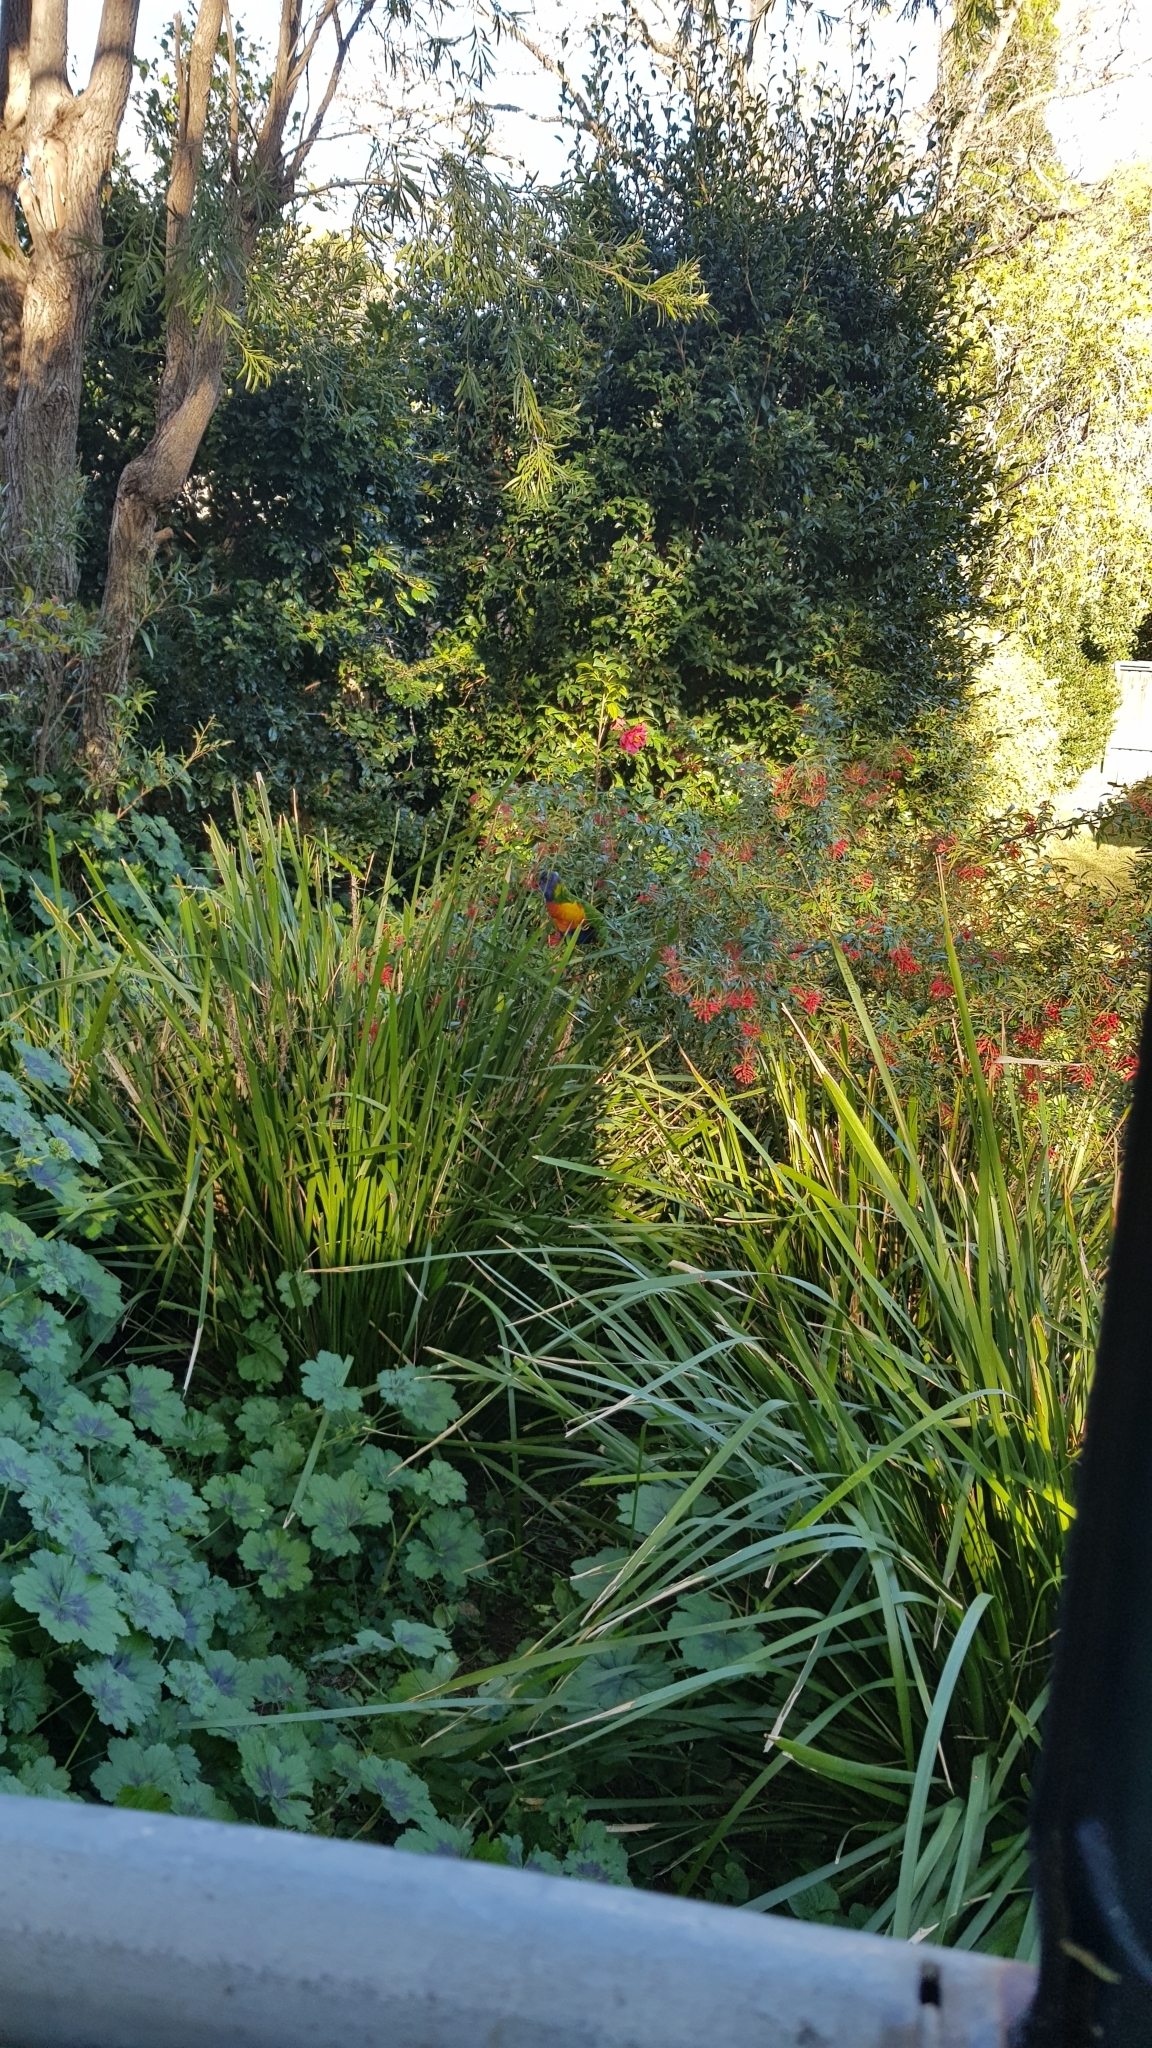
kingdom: Animalia
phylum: Chordata
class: Aves
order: Psittaciformes
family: Psittacidae
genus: Trichoglossus
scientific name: Trichoglossus haematodus
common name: Coconut lorikeet
